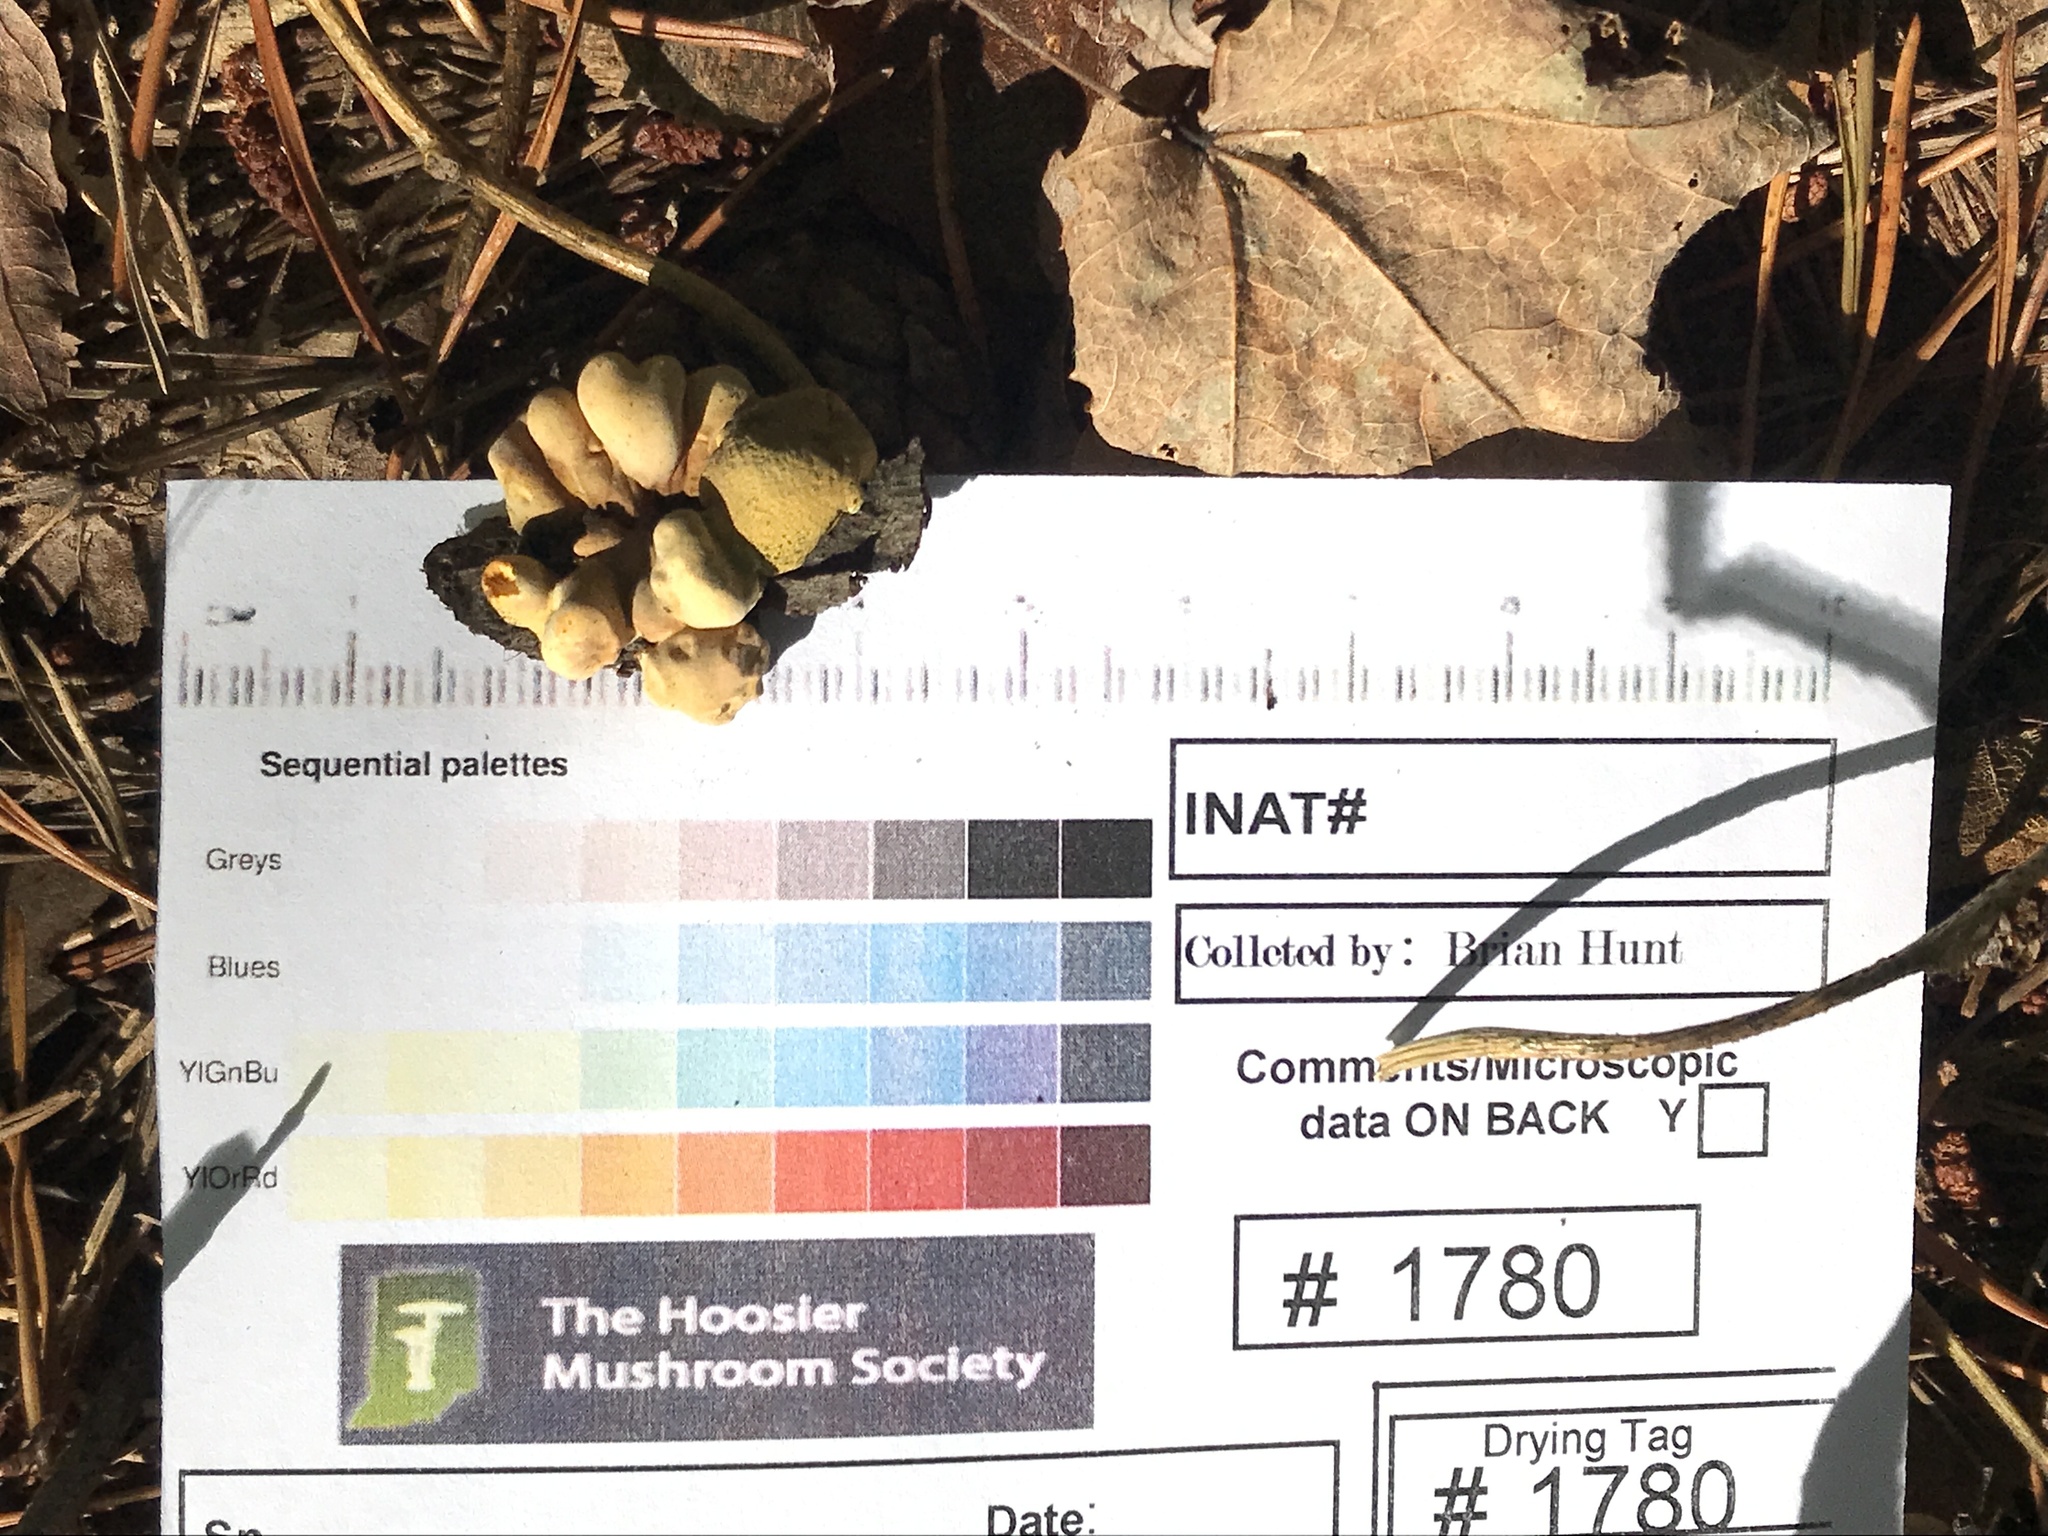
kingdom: Fungi
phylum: Ascomycota
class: Sordariomycetes
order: Xylariales
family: Hypoxylaceae
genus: Thuemenella
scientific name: Thuemenella cubispora
